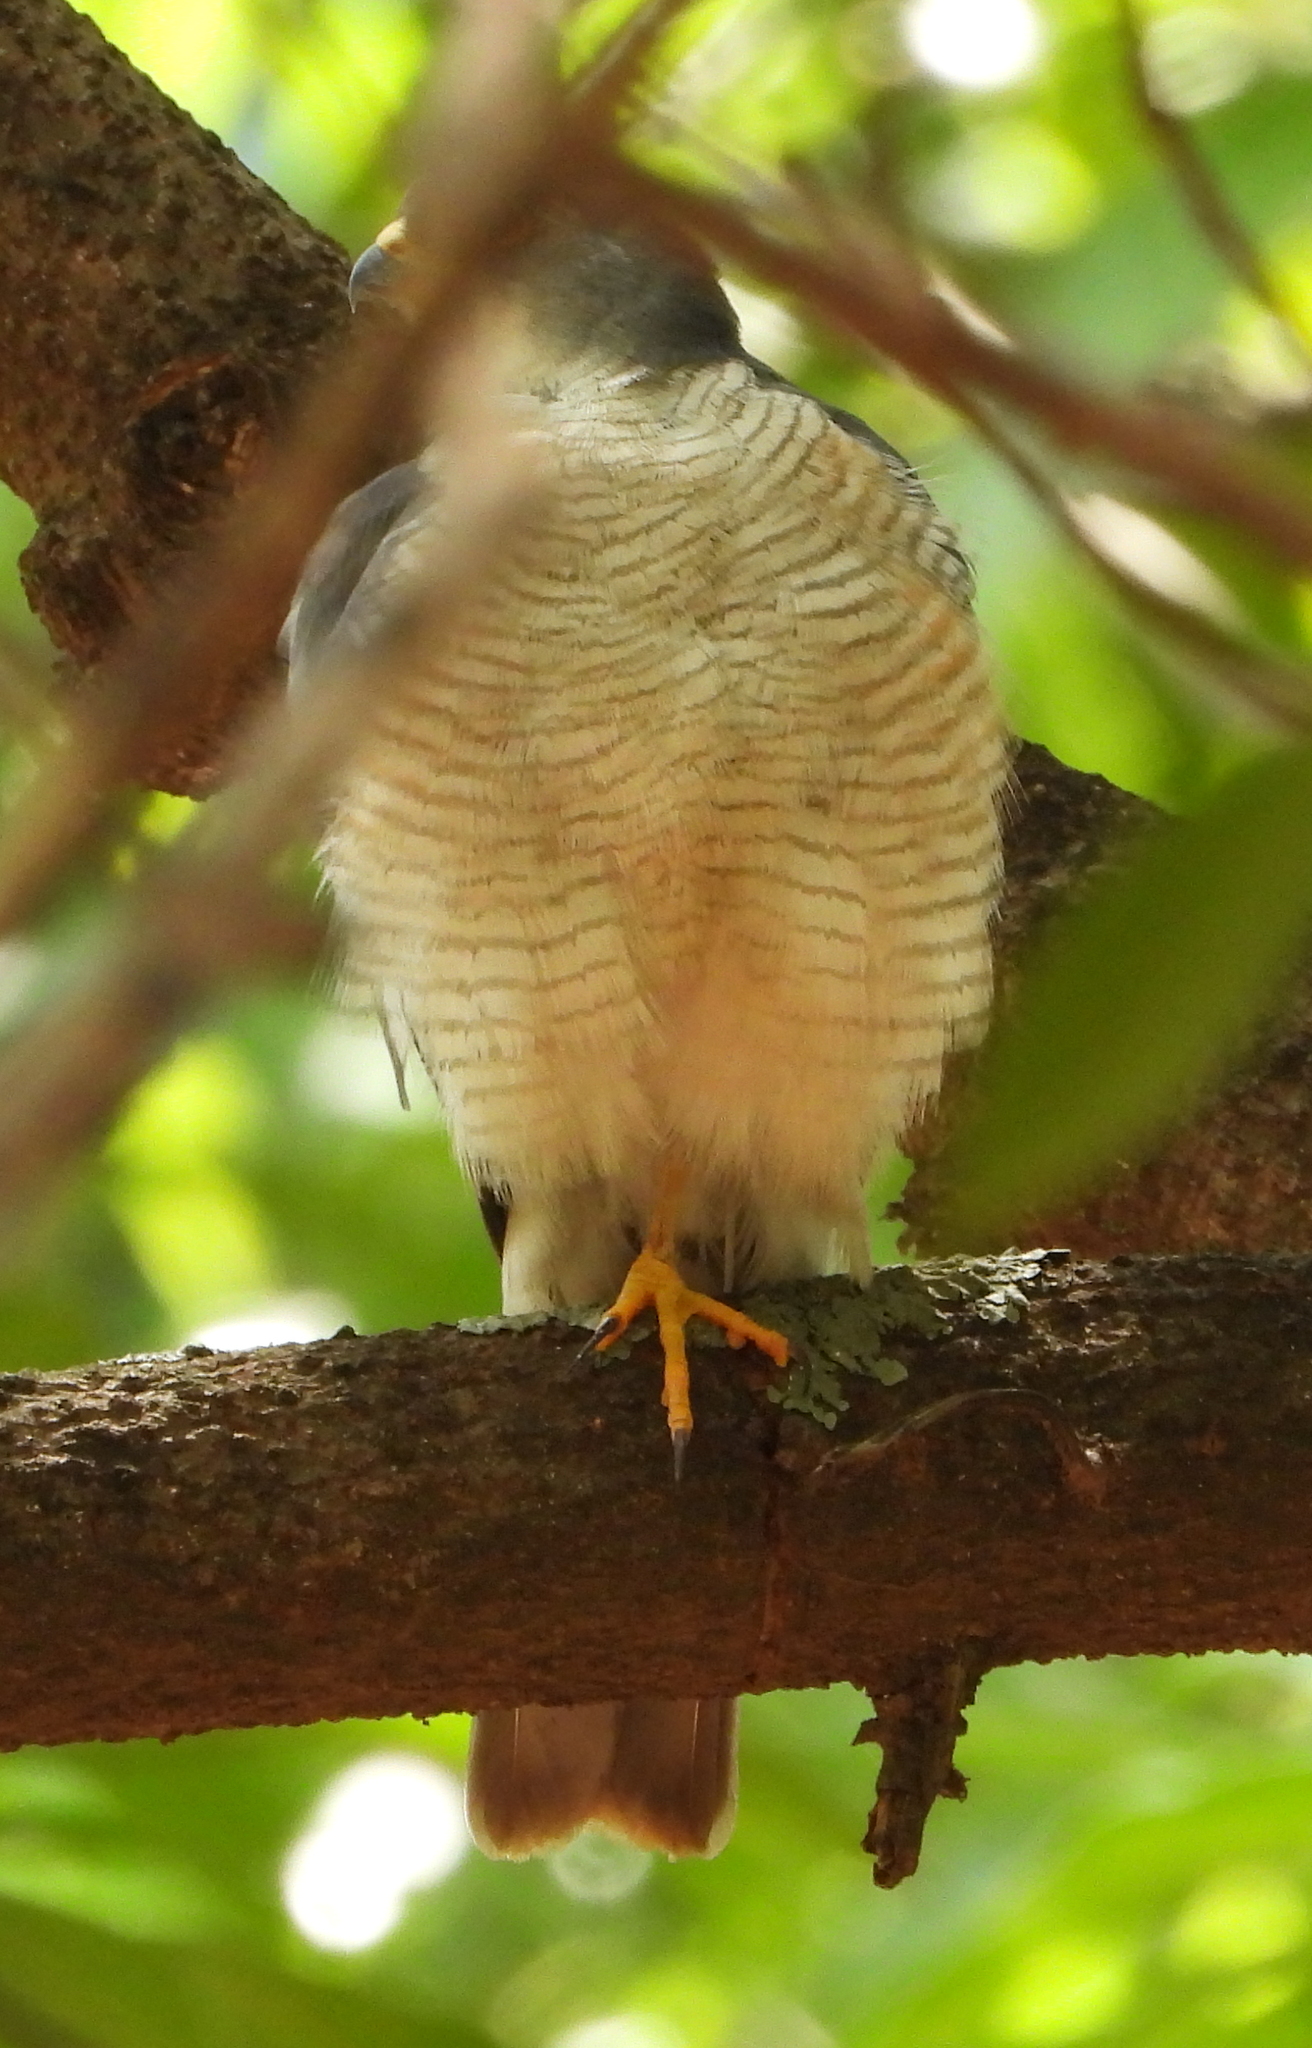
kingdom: Animalia
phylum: Chordata
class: Aves
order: Accipitriformes
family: Accipitridae
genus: Accipiter
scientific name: Accipiter minullus
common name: Little sparrowhawk
